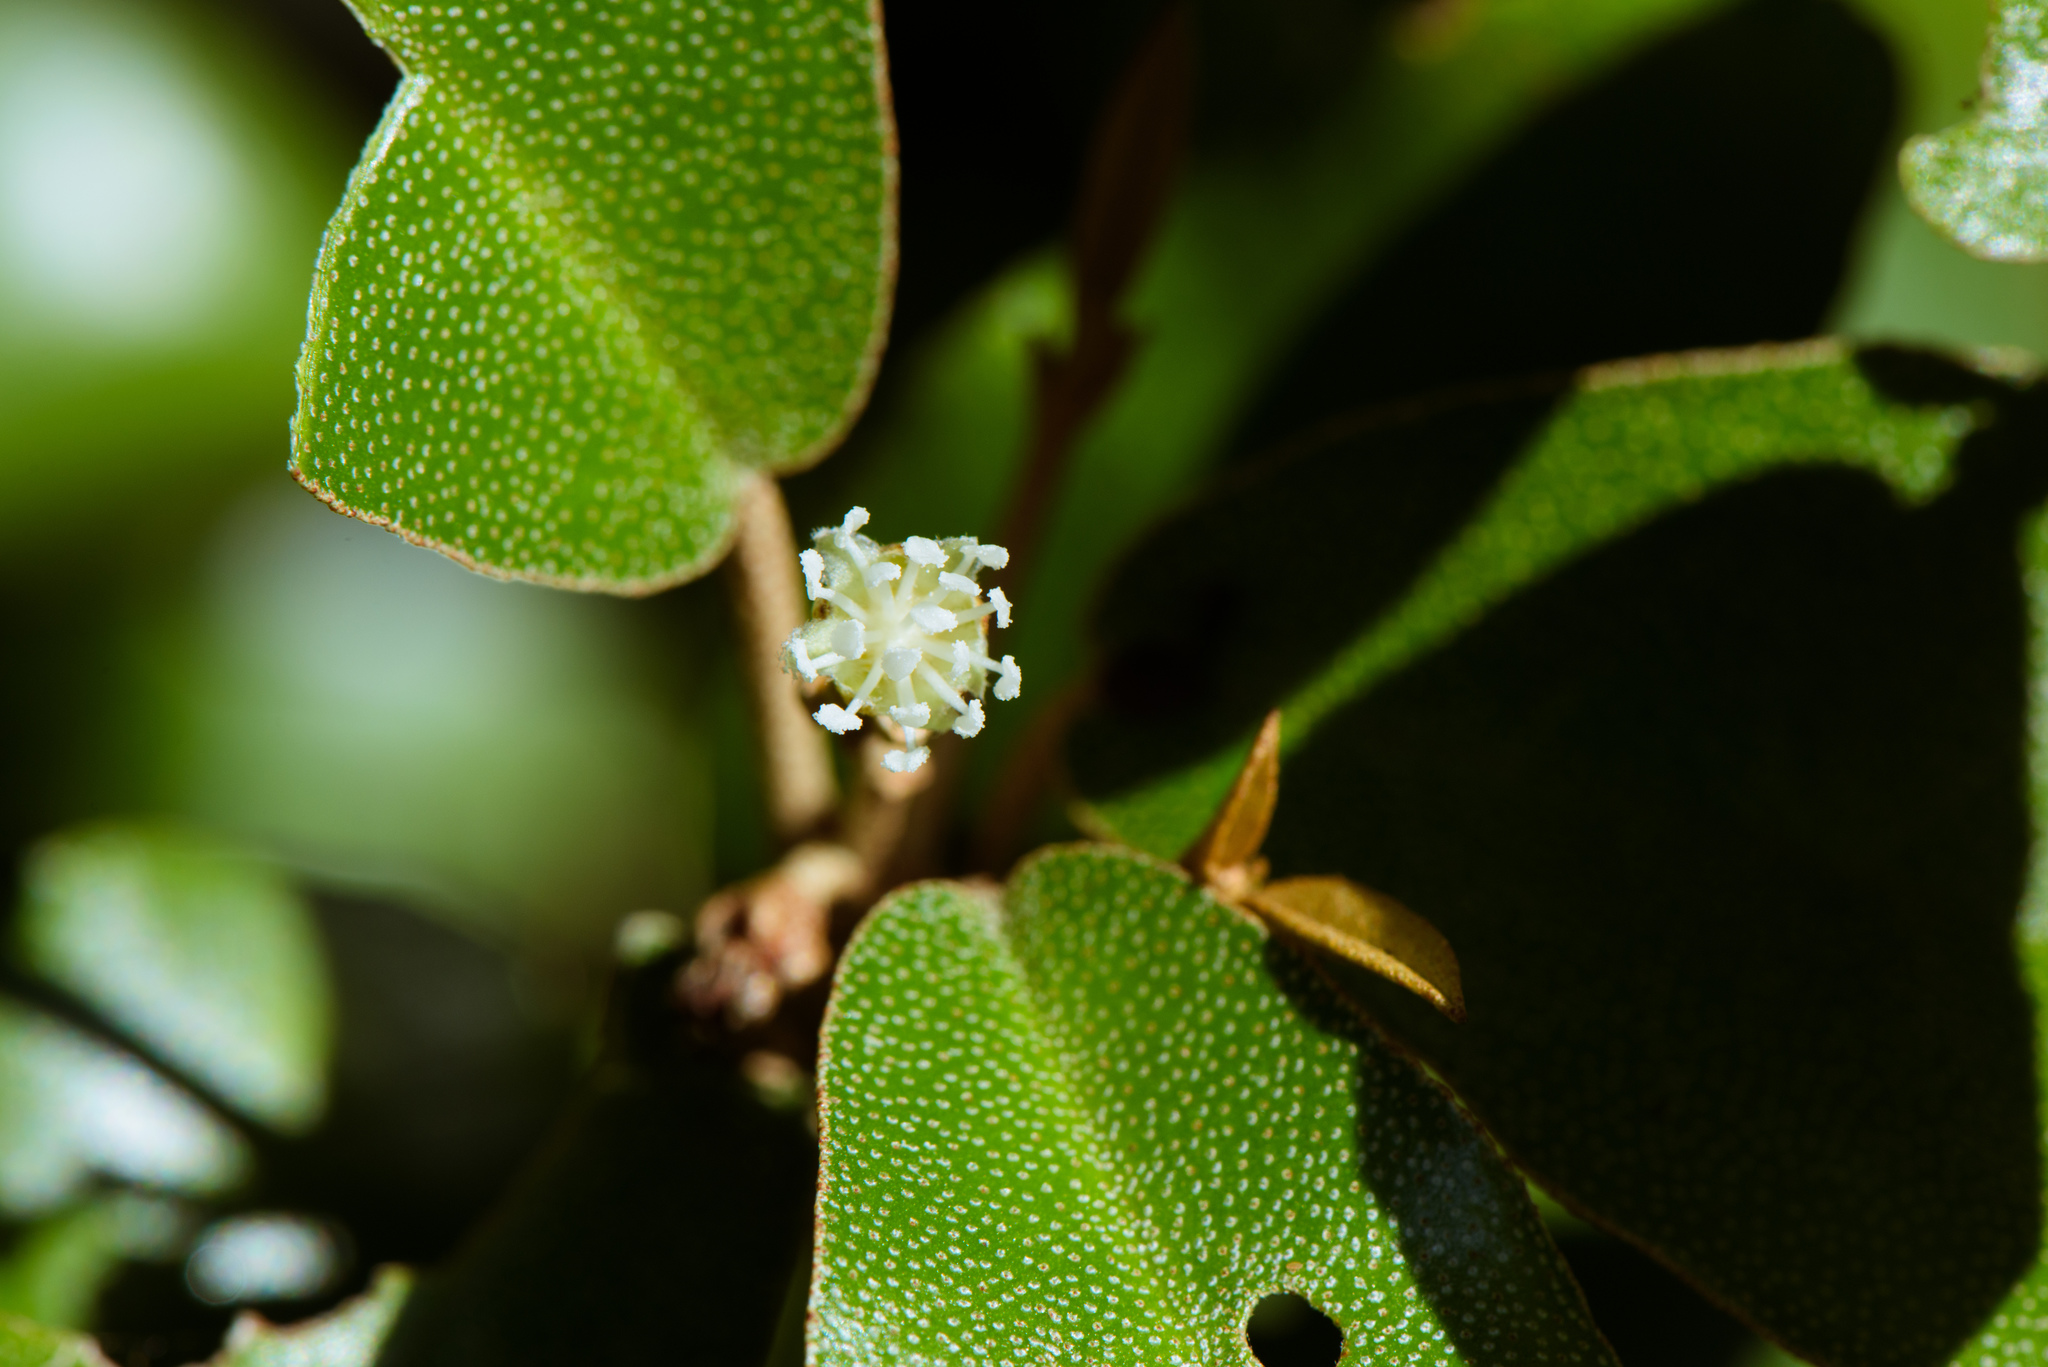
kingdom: Plantae
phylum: Tracheophyta
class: Magnoliopsida
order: Malpighiales
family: Euphorbiaceae
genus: Croton
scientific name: Croton cascarilloides
